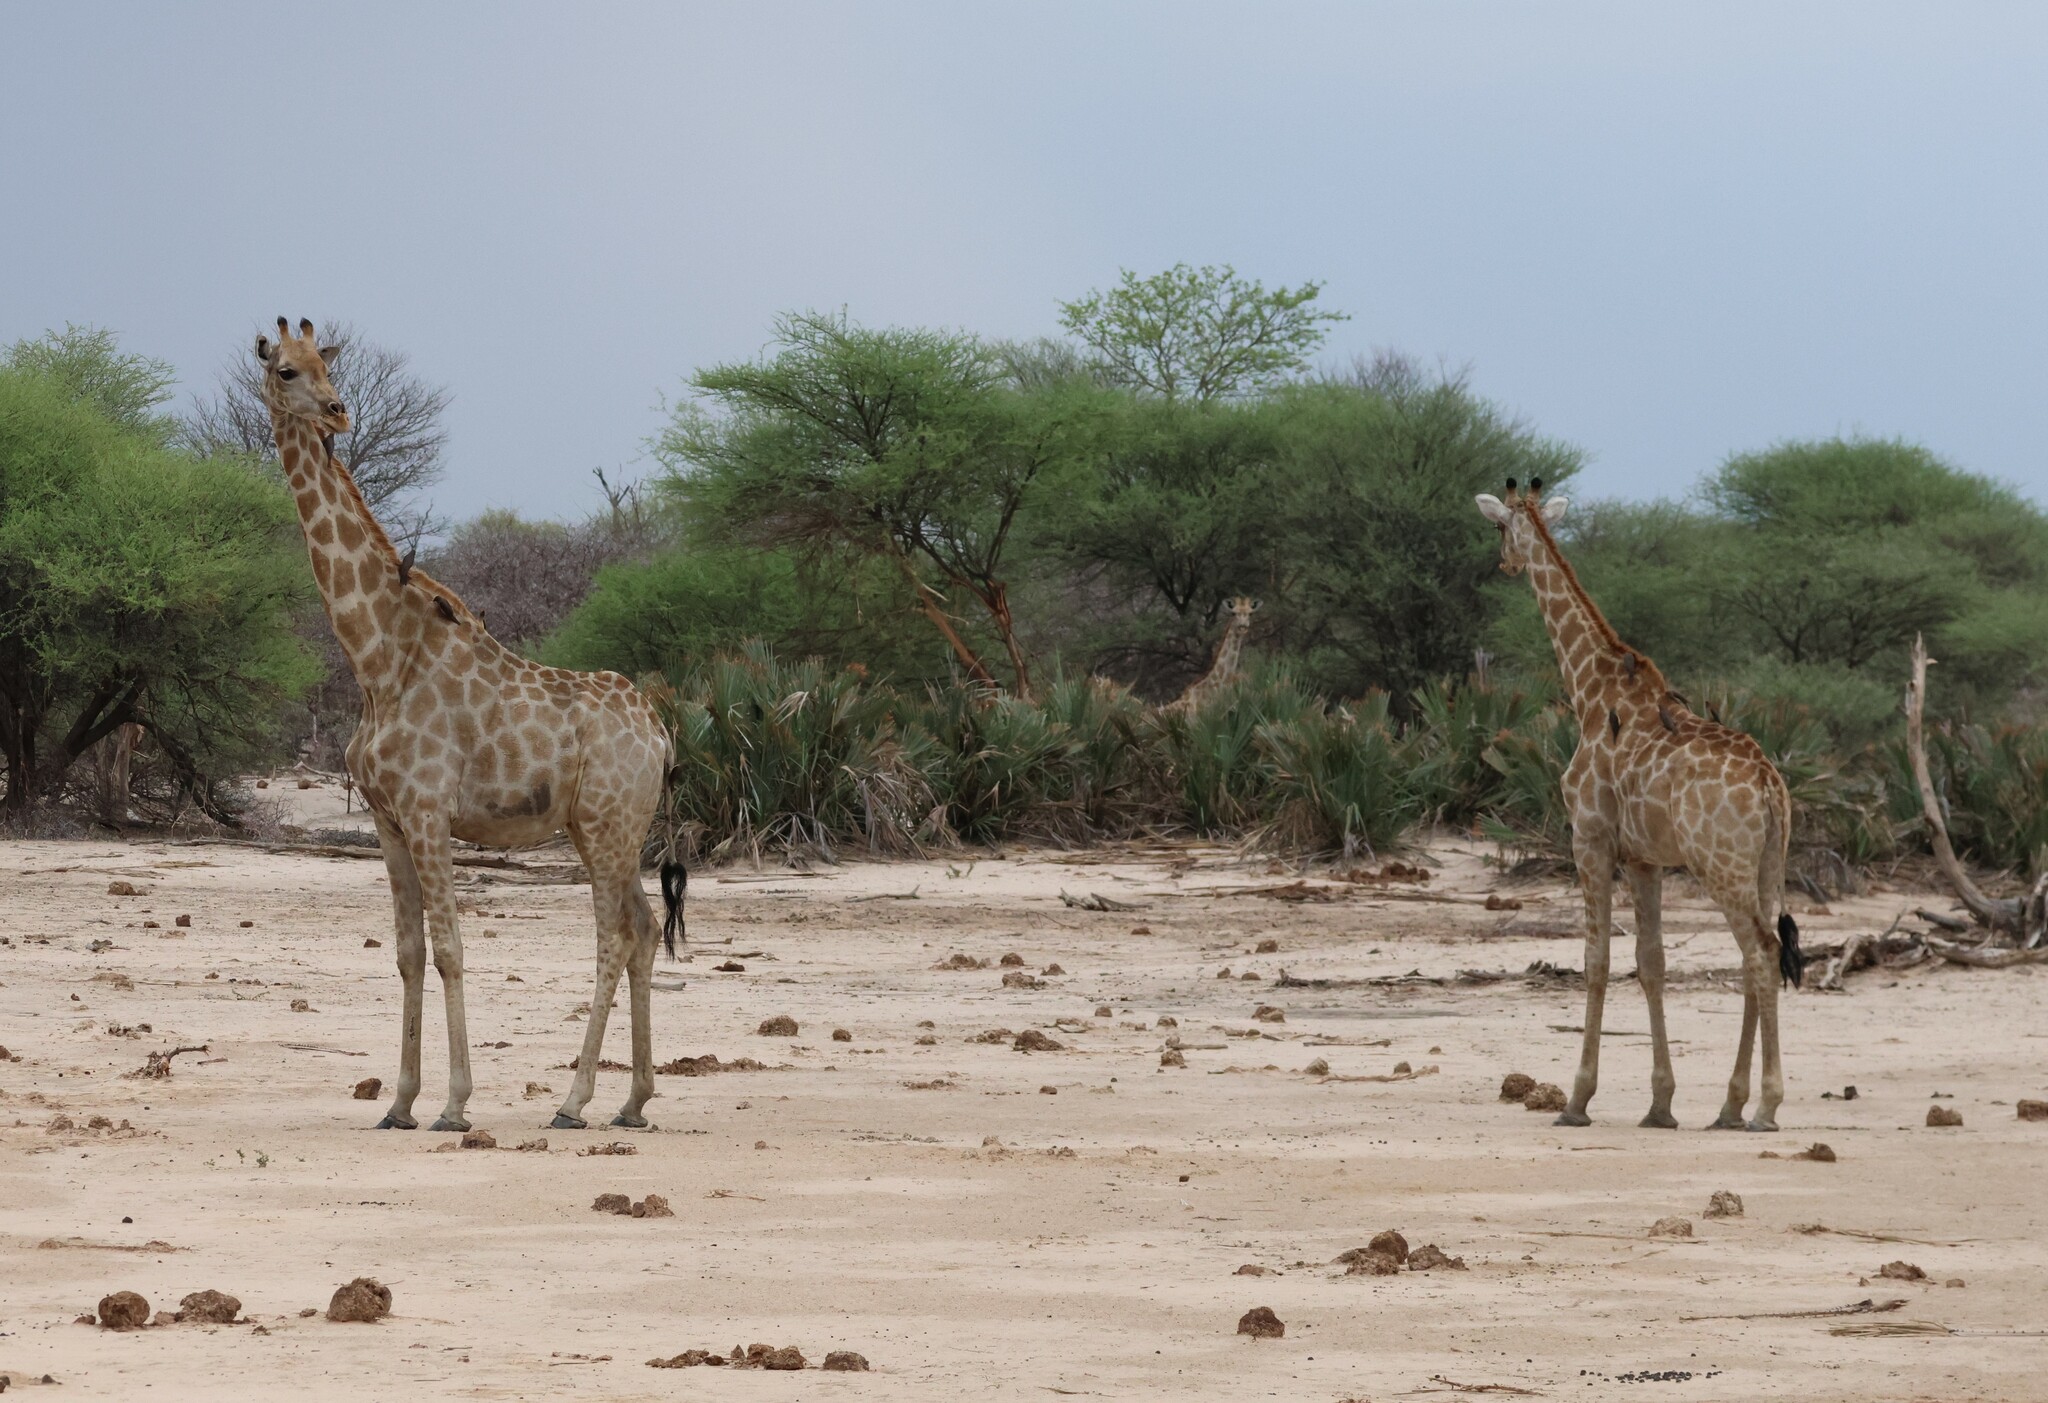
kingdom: Animalia
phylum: Chordata
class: Mammalia
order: Artiodactyla
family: Giraffidae
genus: Giraffa
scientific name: Giraffa giraffa
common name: Southern giraffe
